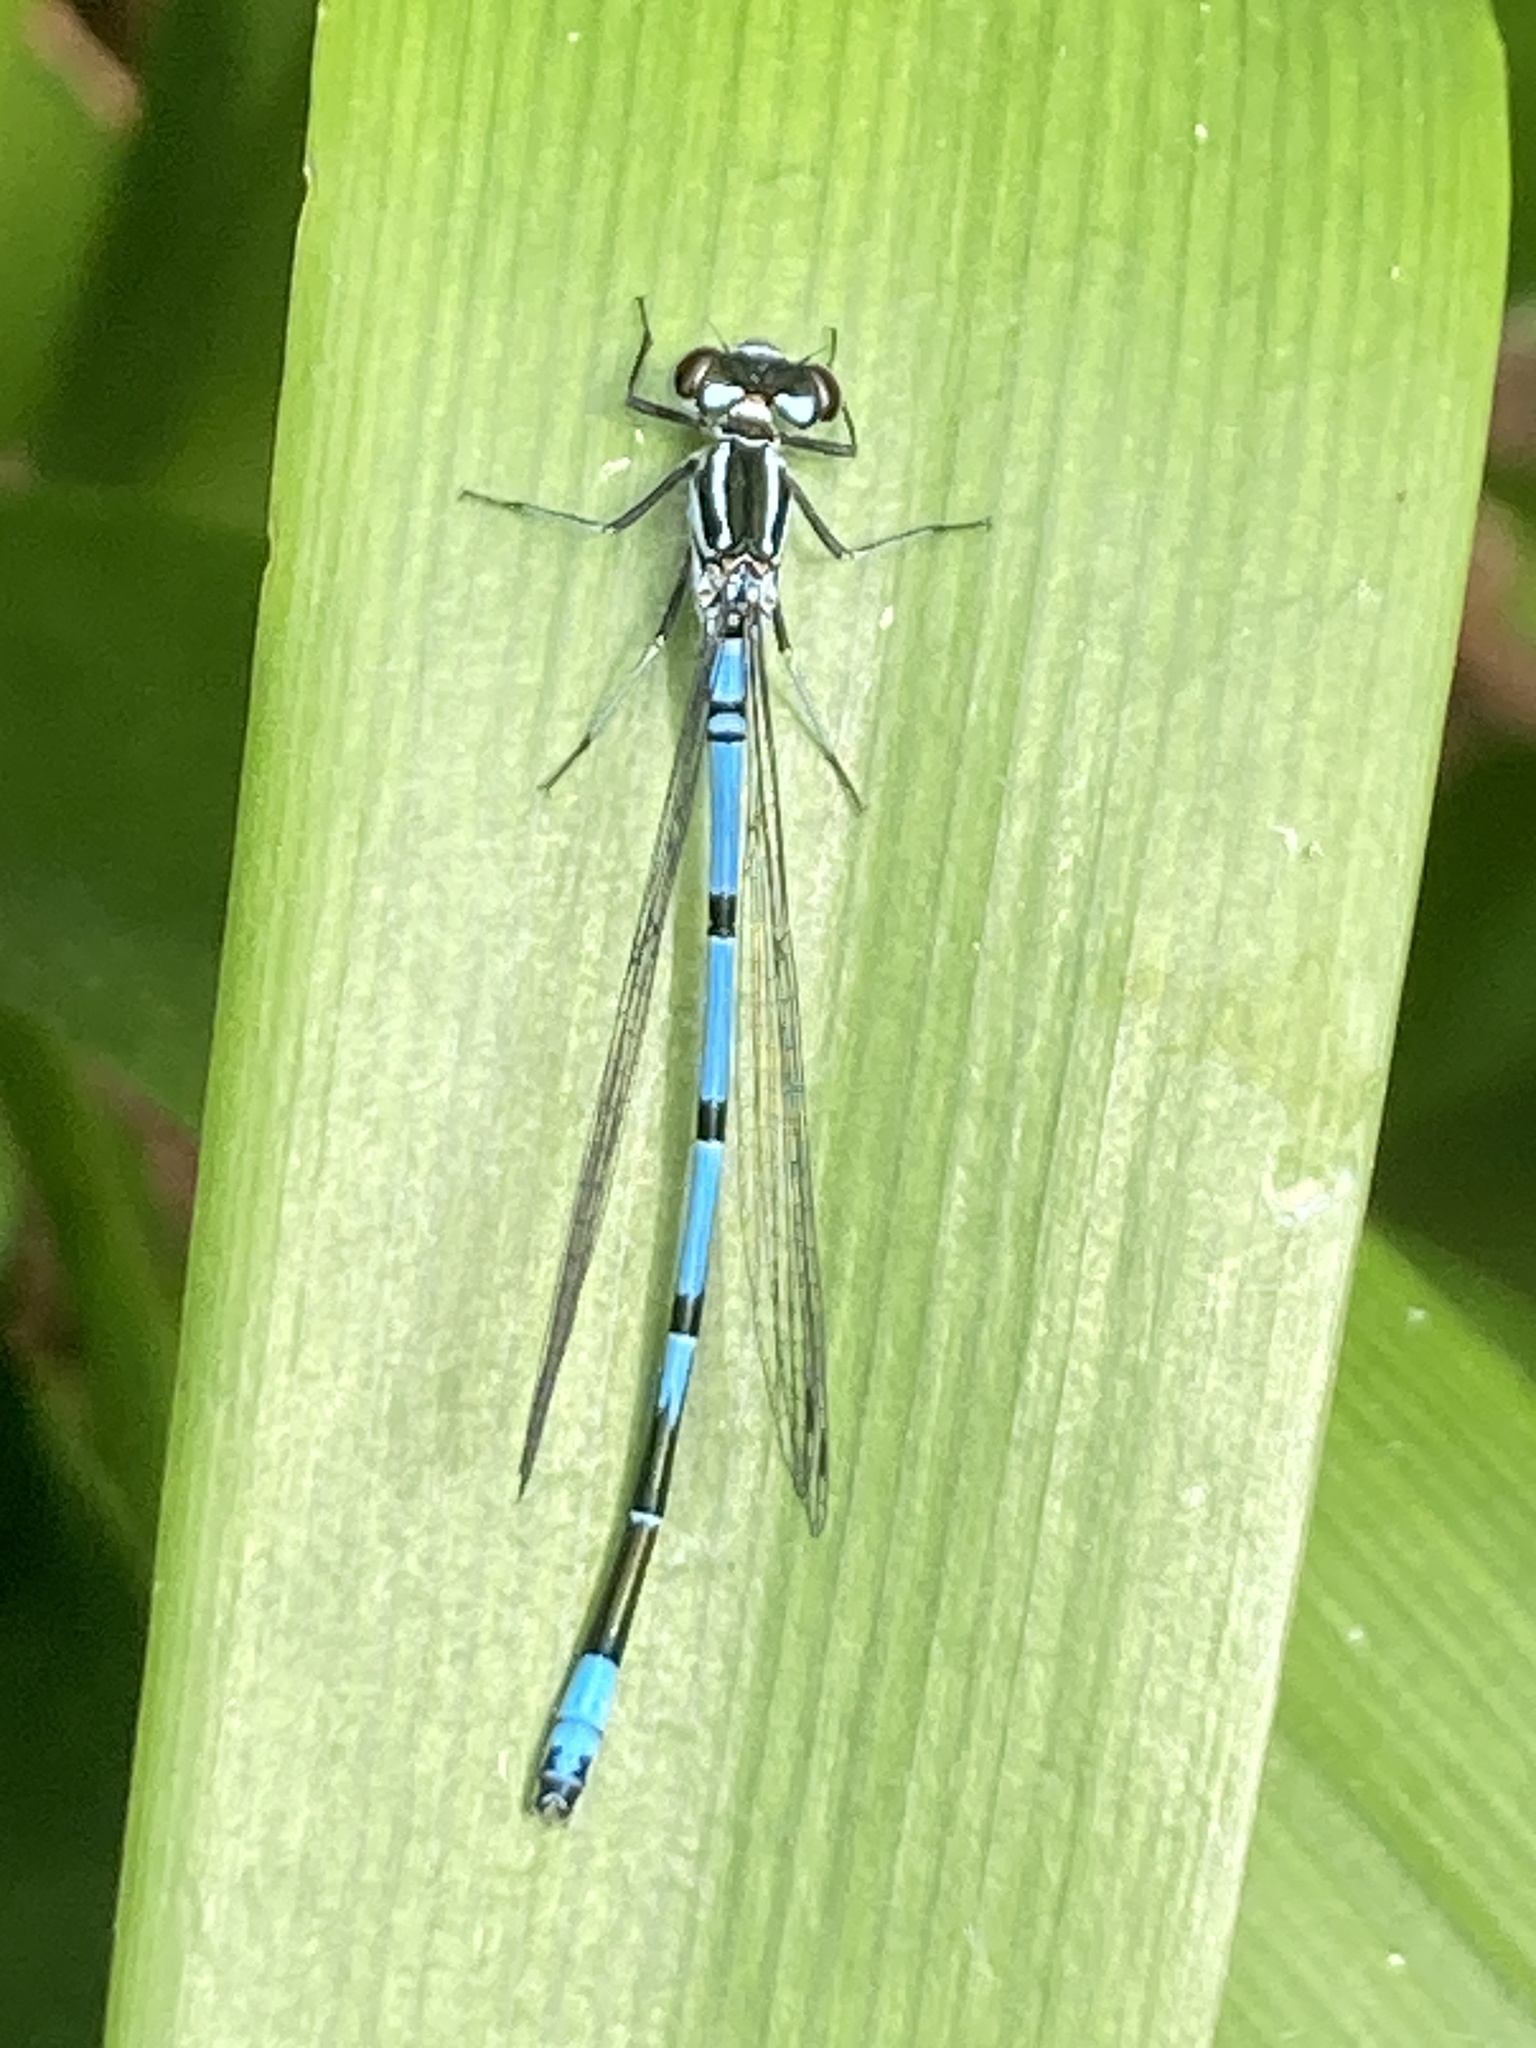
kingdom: Animalia
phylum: Arthropoda
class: Insecta
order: Odonata
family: Coenagrionidae
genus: Coenagrion
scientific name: Coenagrion puella
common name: Azure damselfly
